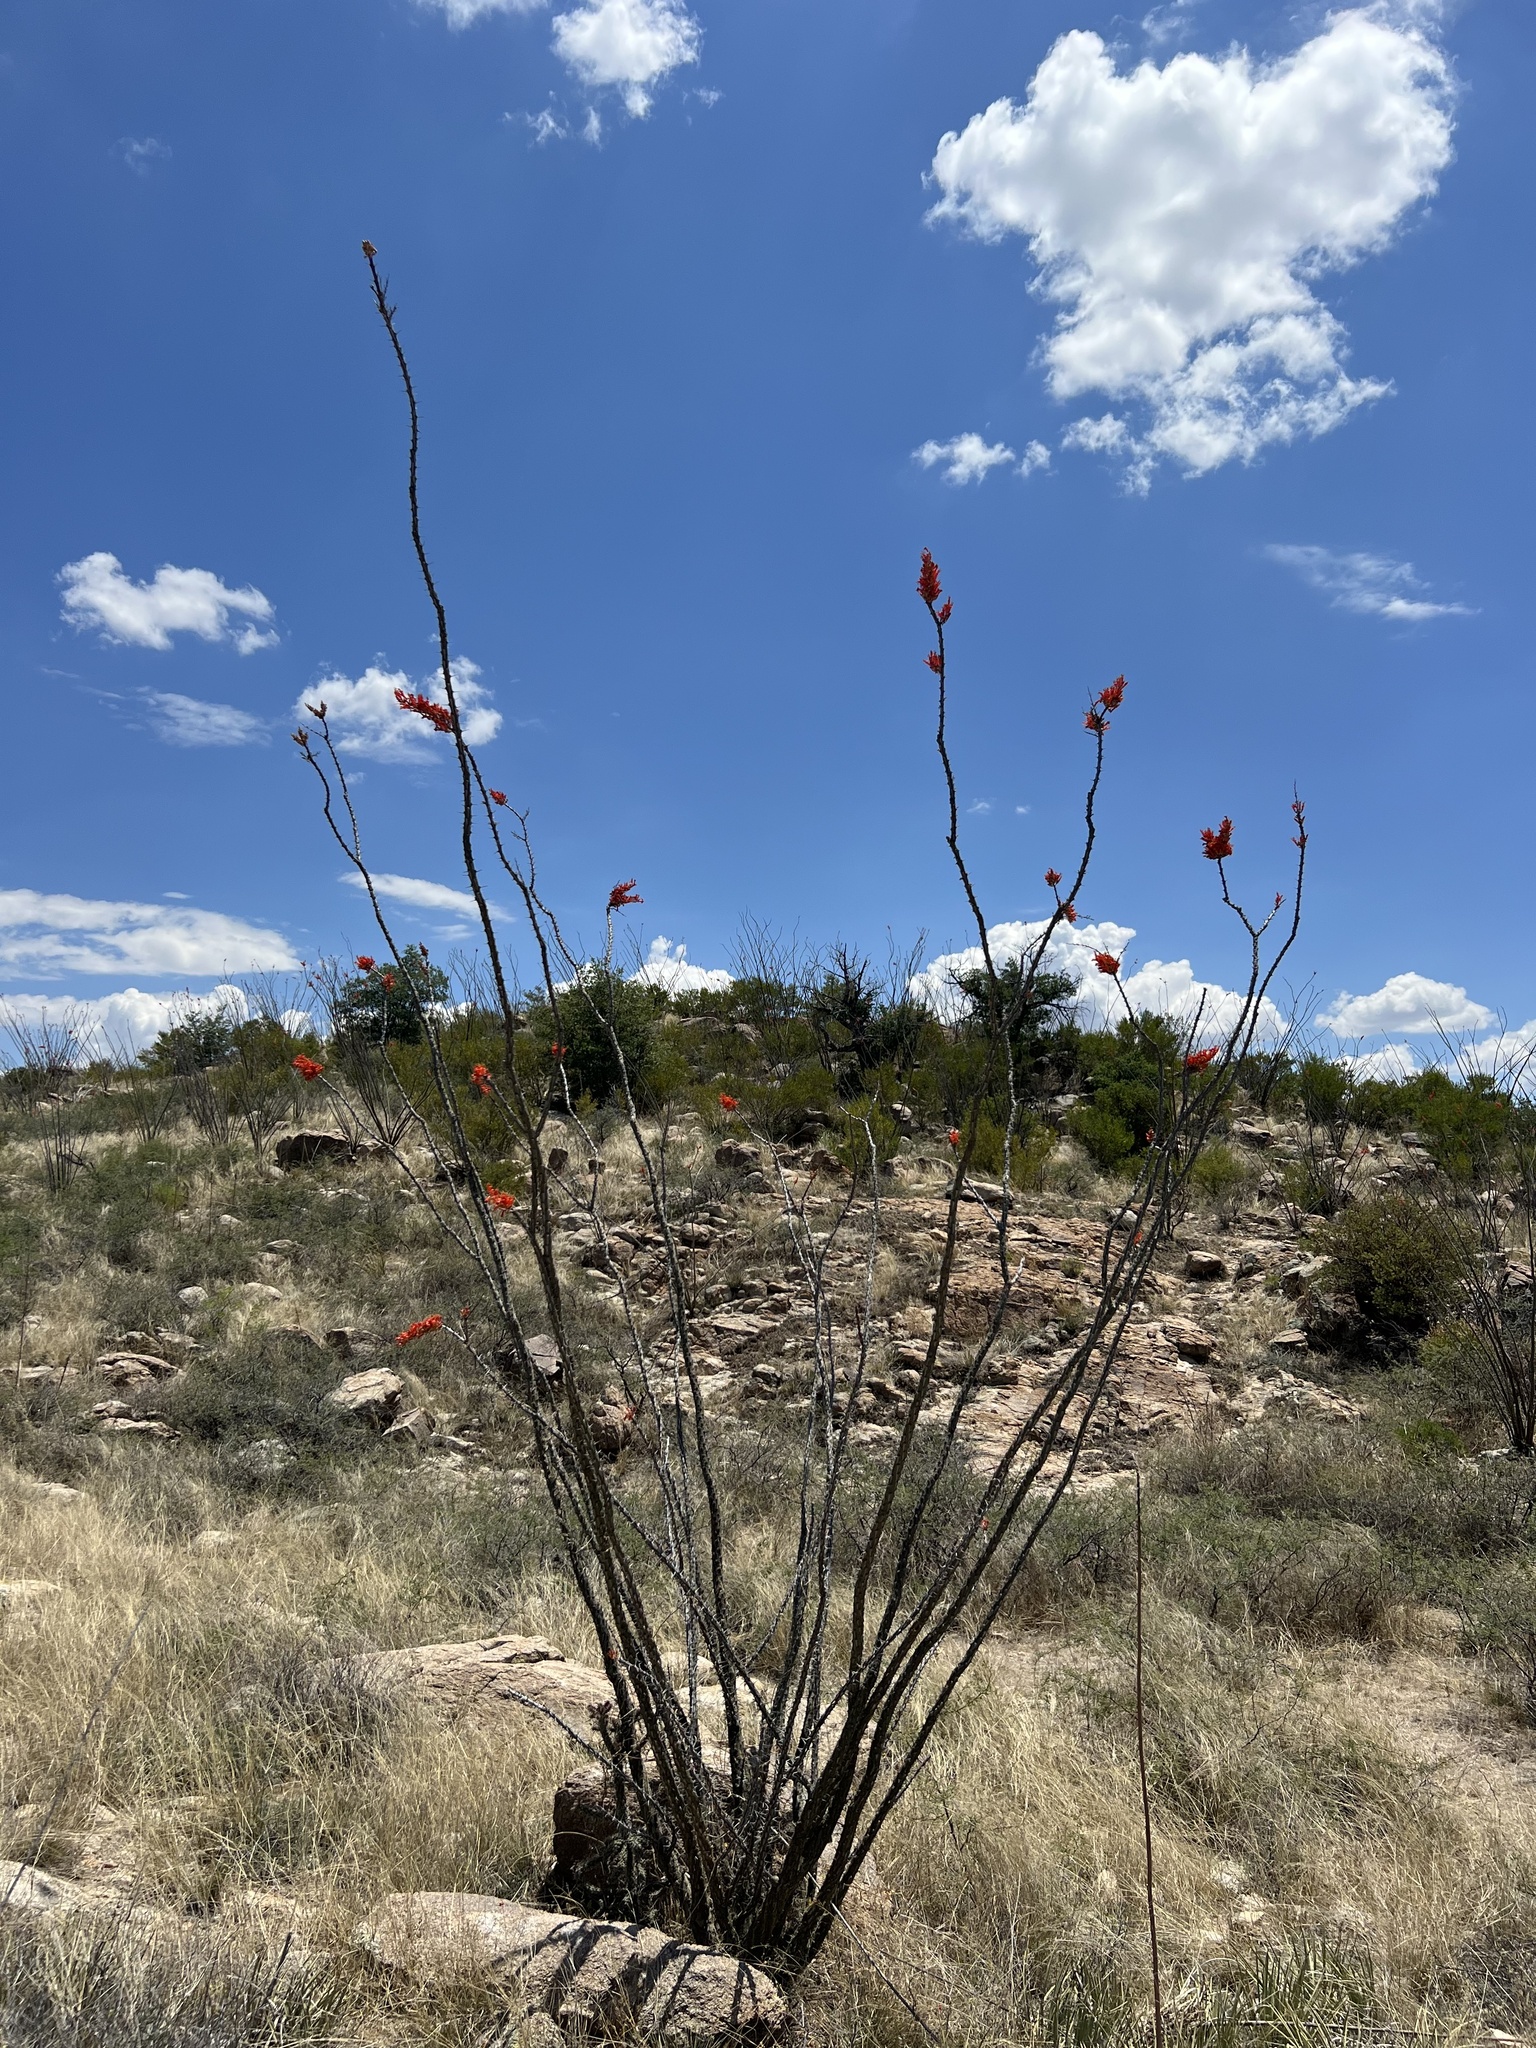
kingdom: Plantae
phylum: Tracheophyta
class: Magnoliopsida
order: Ericales
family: Fouquieriaceae
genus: Fouquieria
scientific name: Fouquieria splendens
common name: Vine-cactus
